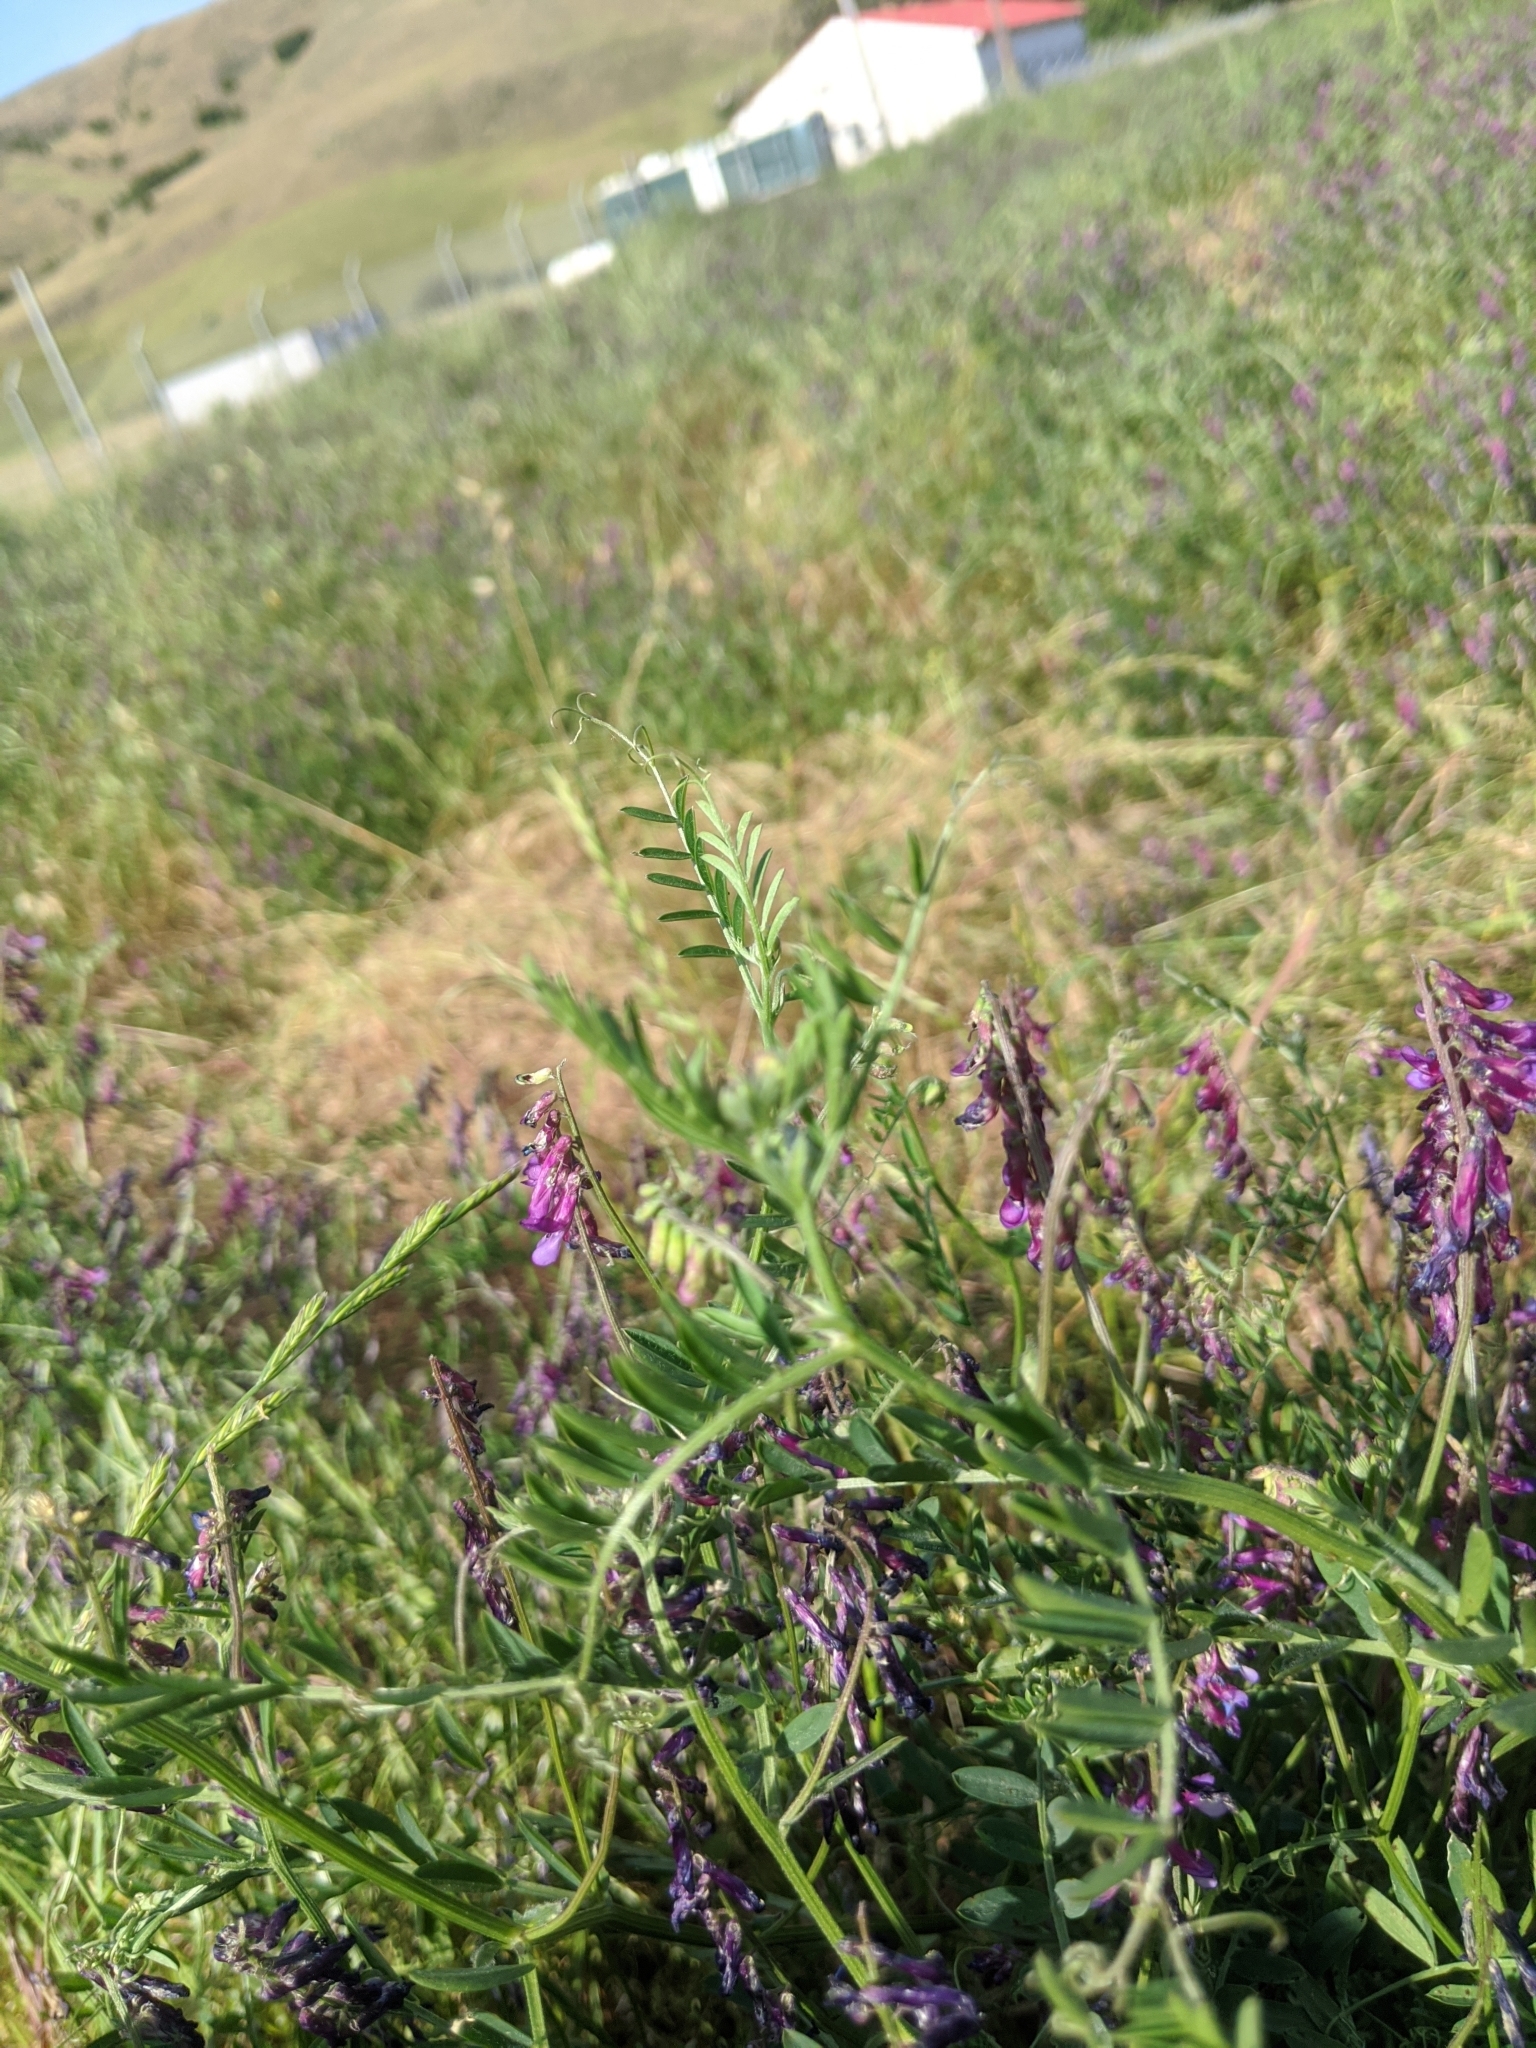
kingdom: Plantae
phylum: Tracheophyta
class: Magnoliopsida
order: Fabales
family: Fabaceae
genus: Vicia
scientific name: Vicia villosa
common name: Fodder vetch
